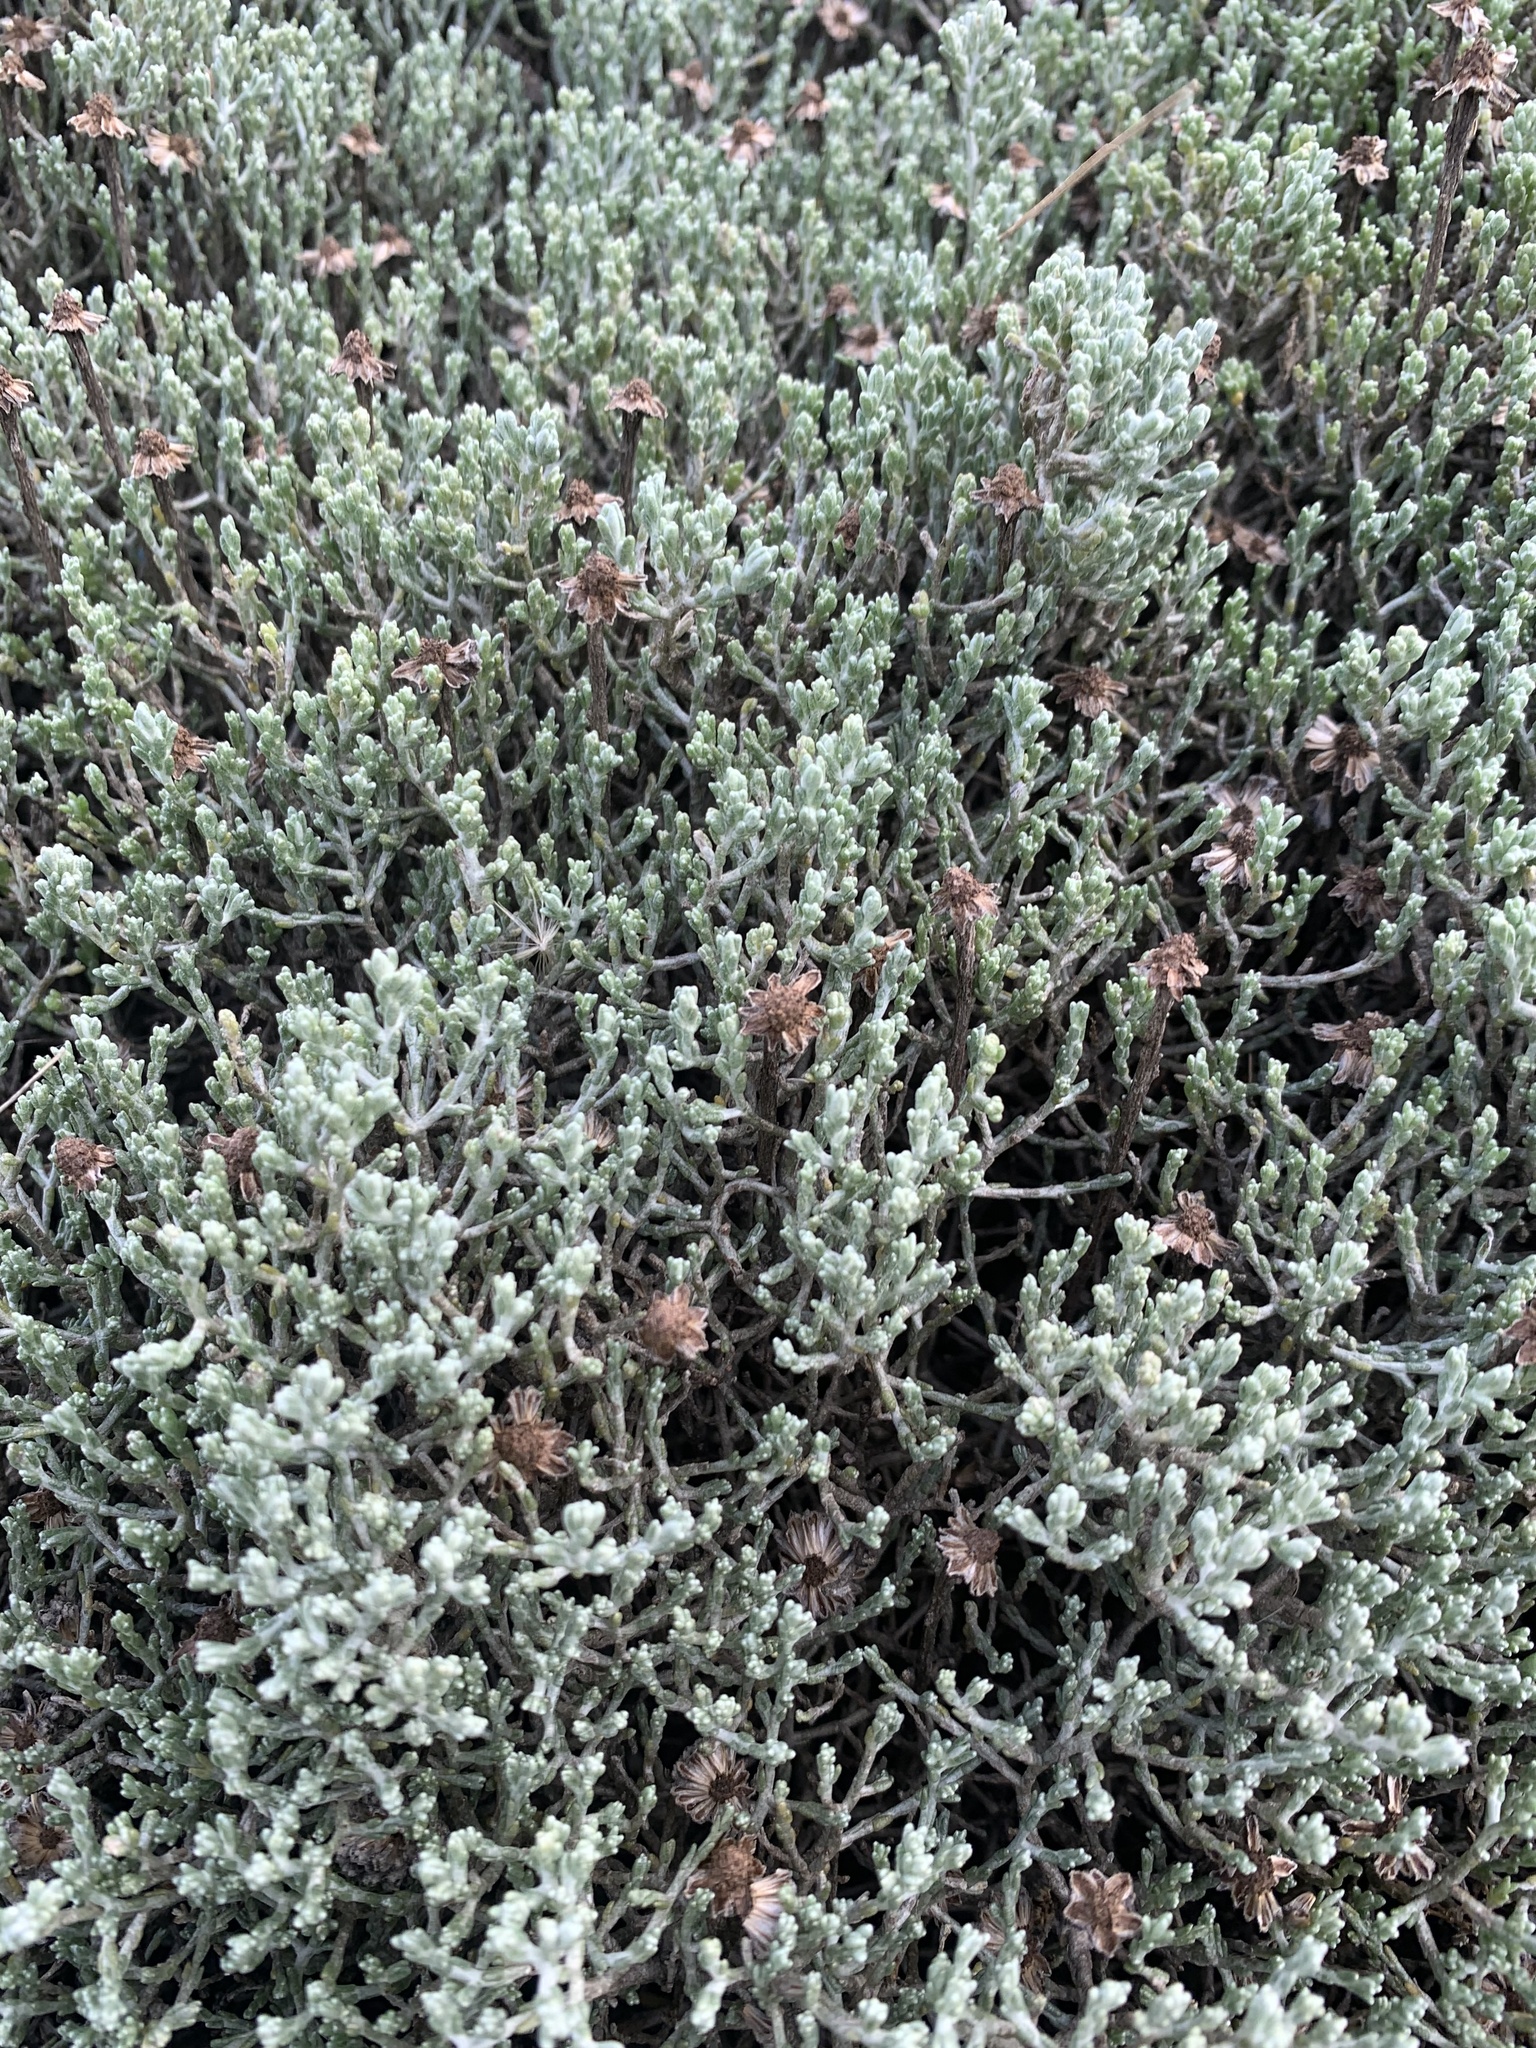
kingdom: Plantae
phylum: Tracheophyta
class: Magnoliopsida
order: Asterales
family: Asteraceae
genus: Calocephalus
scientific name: Calocephalus brownii
